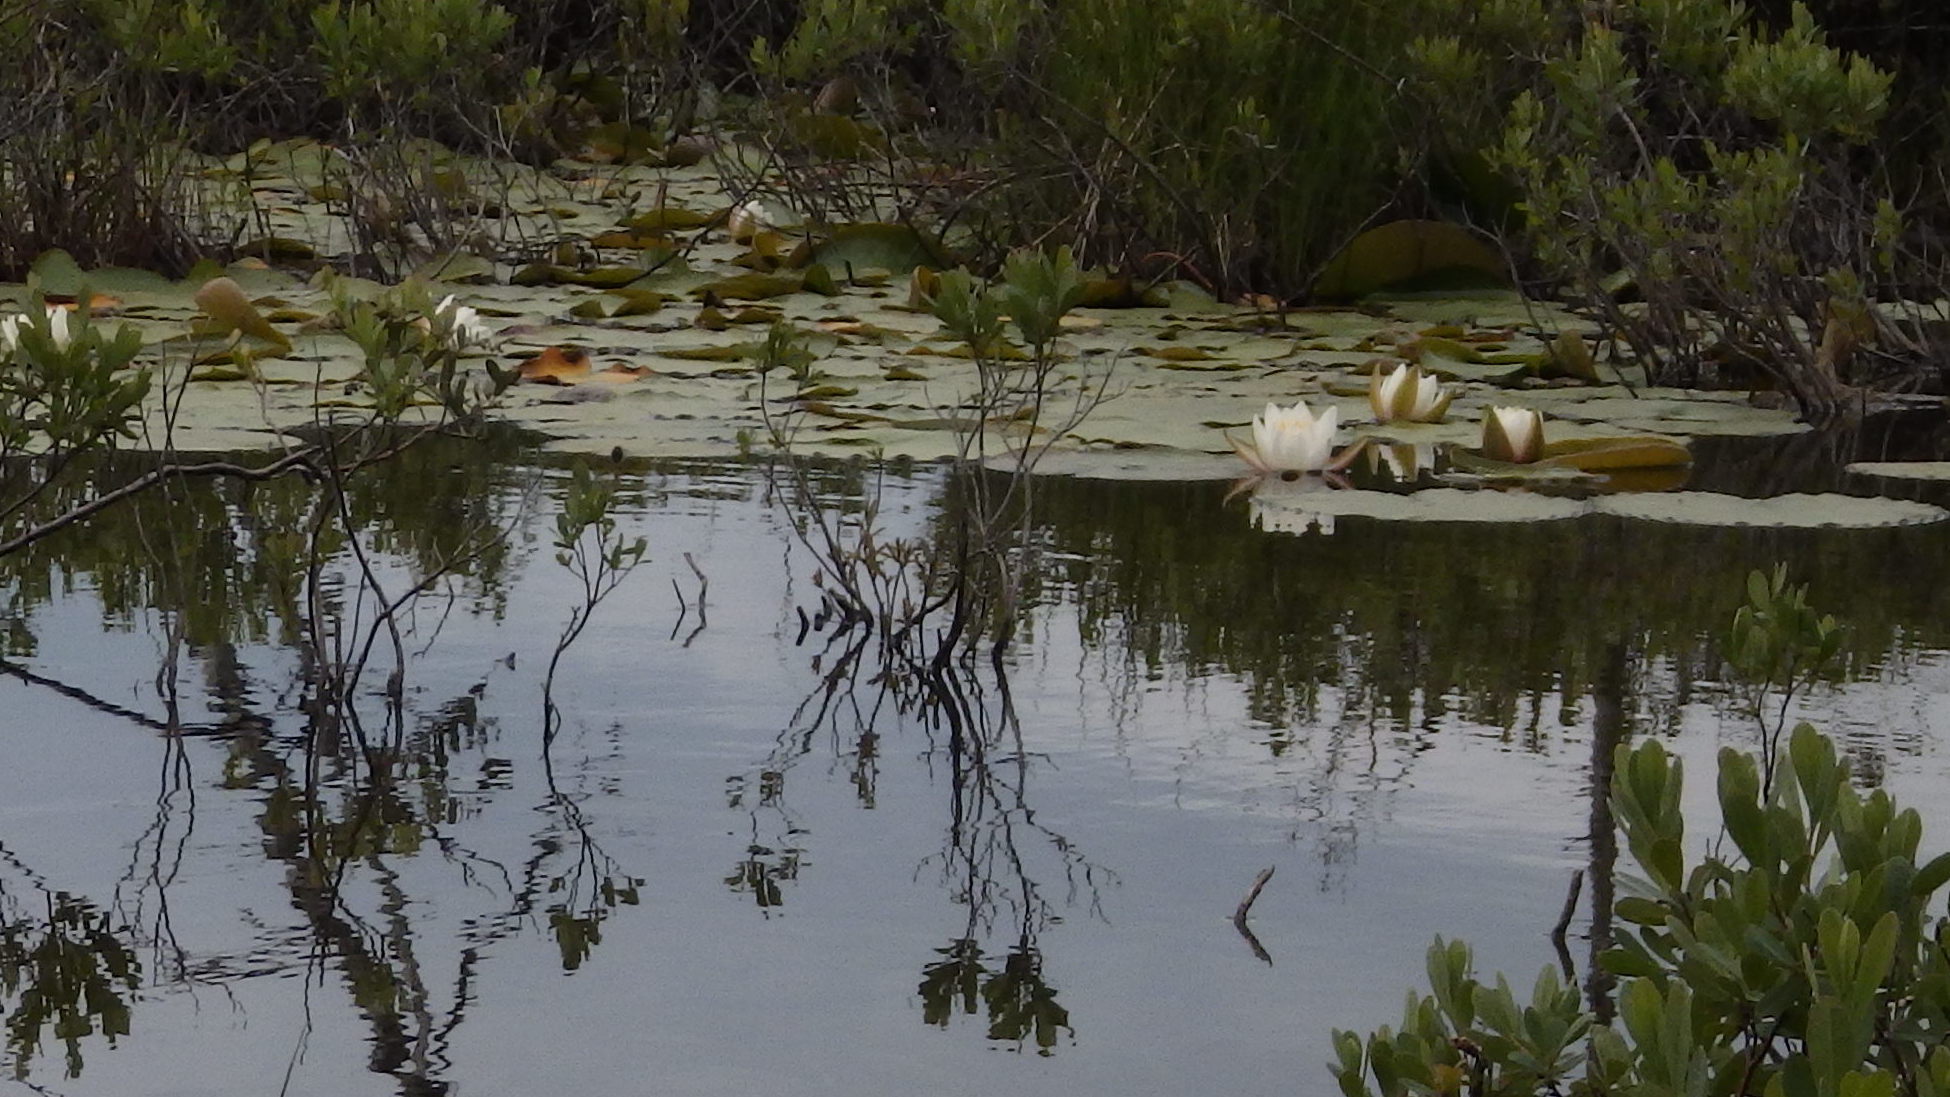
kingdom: Plantae
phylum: Tracheophyta
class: Magnoliopsida
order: Nymphaeales
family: Nymphaeaceae
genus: Nymphaea
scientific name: Nymphaea odorata
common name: Fragrant water-lily
